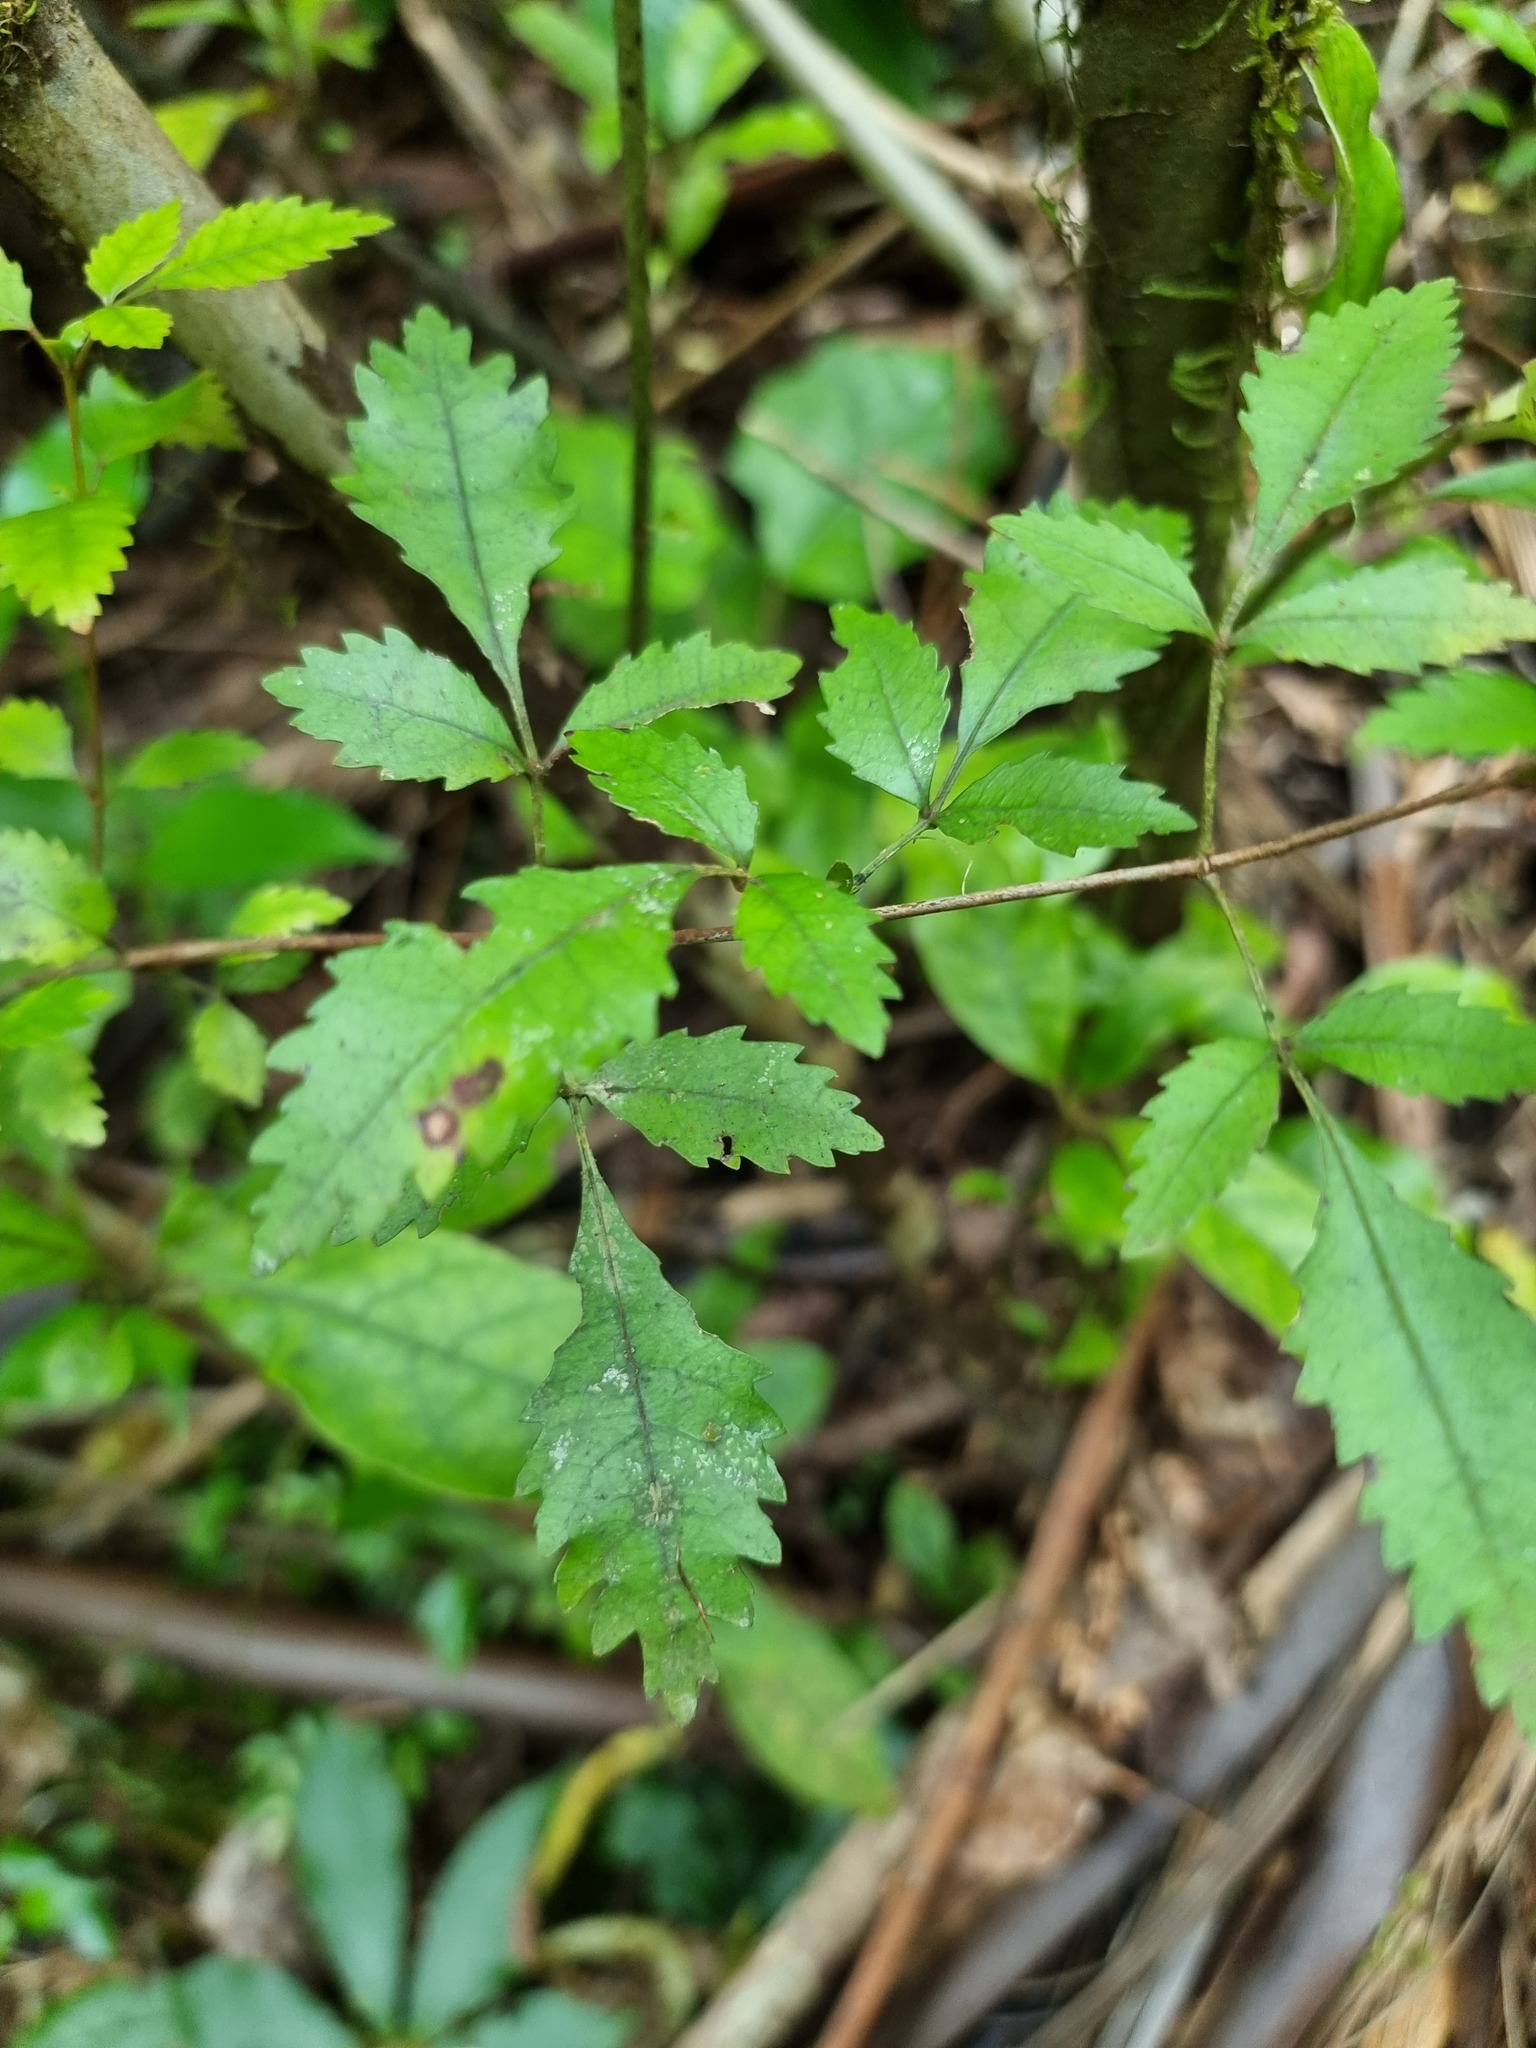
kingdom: Plantae
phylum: Tracheophyta
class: Magnoliopsida
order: Oxalidales
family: Cunoniaceae
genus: Pterophylla
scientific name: Pterophylla racemosa
